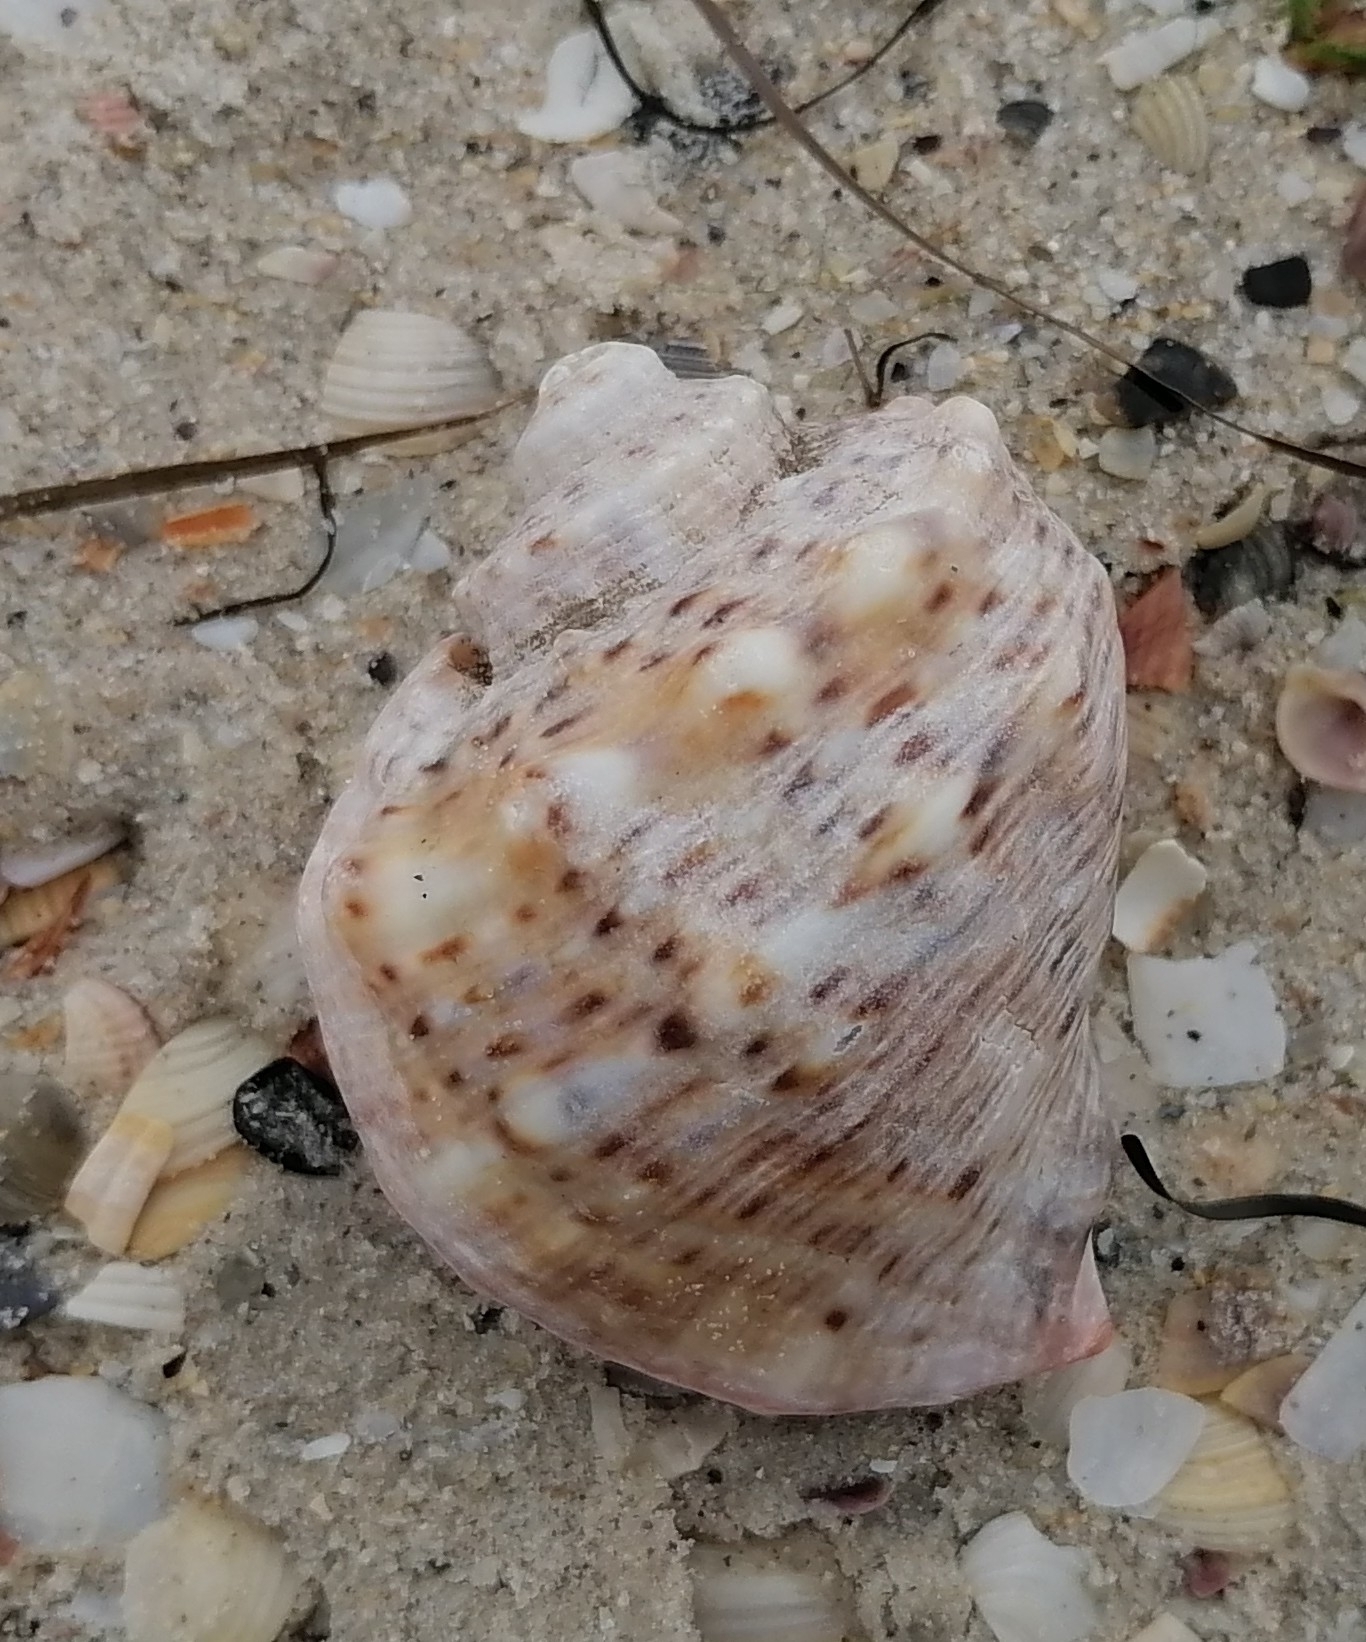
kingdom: Animalia
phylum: Mollusca
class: Gastropoda
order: Neogastropoda
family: Muricidae
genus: Rapana
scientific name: Rapana venosa
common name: Veined rapa whelk
